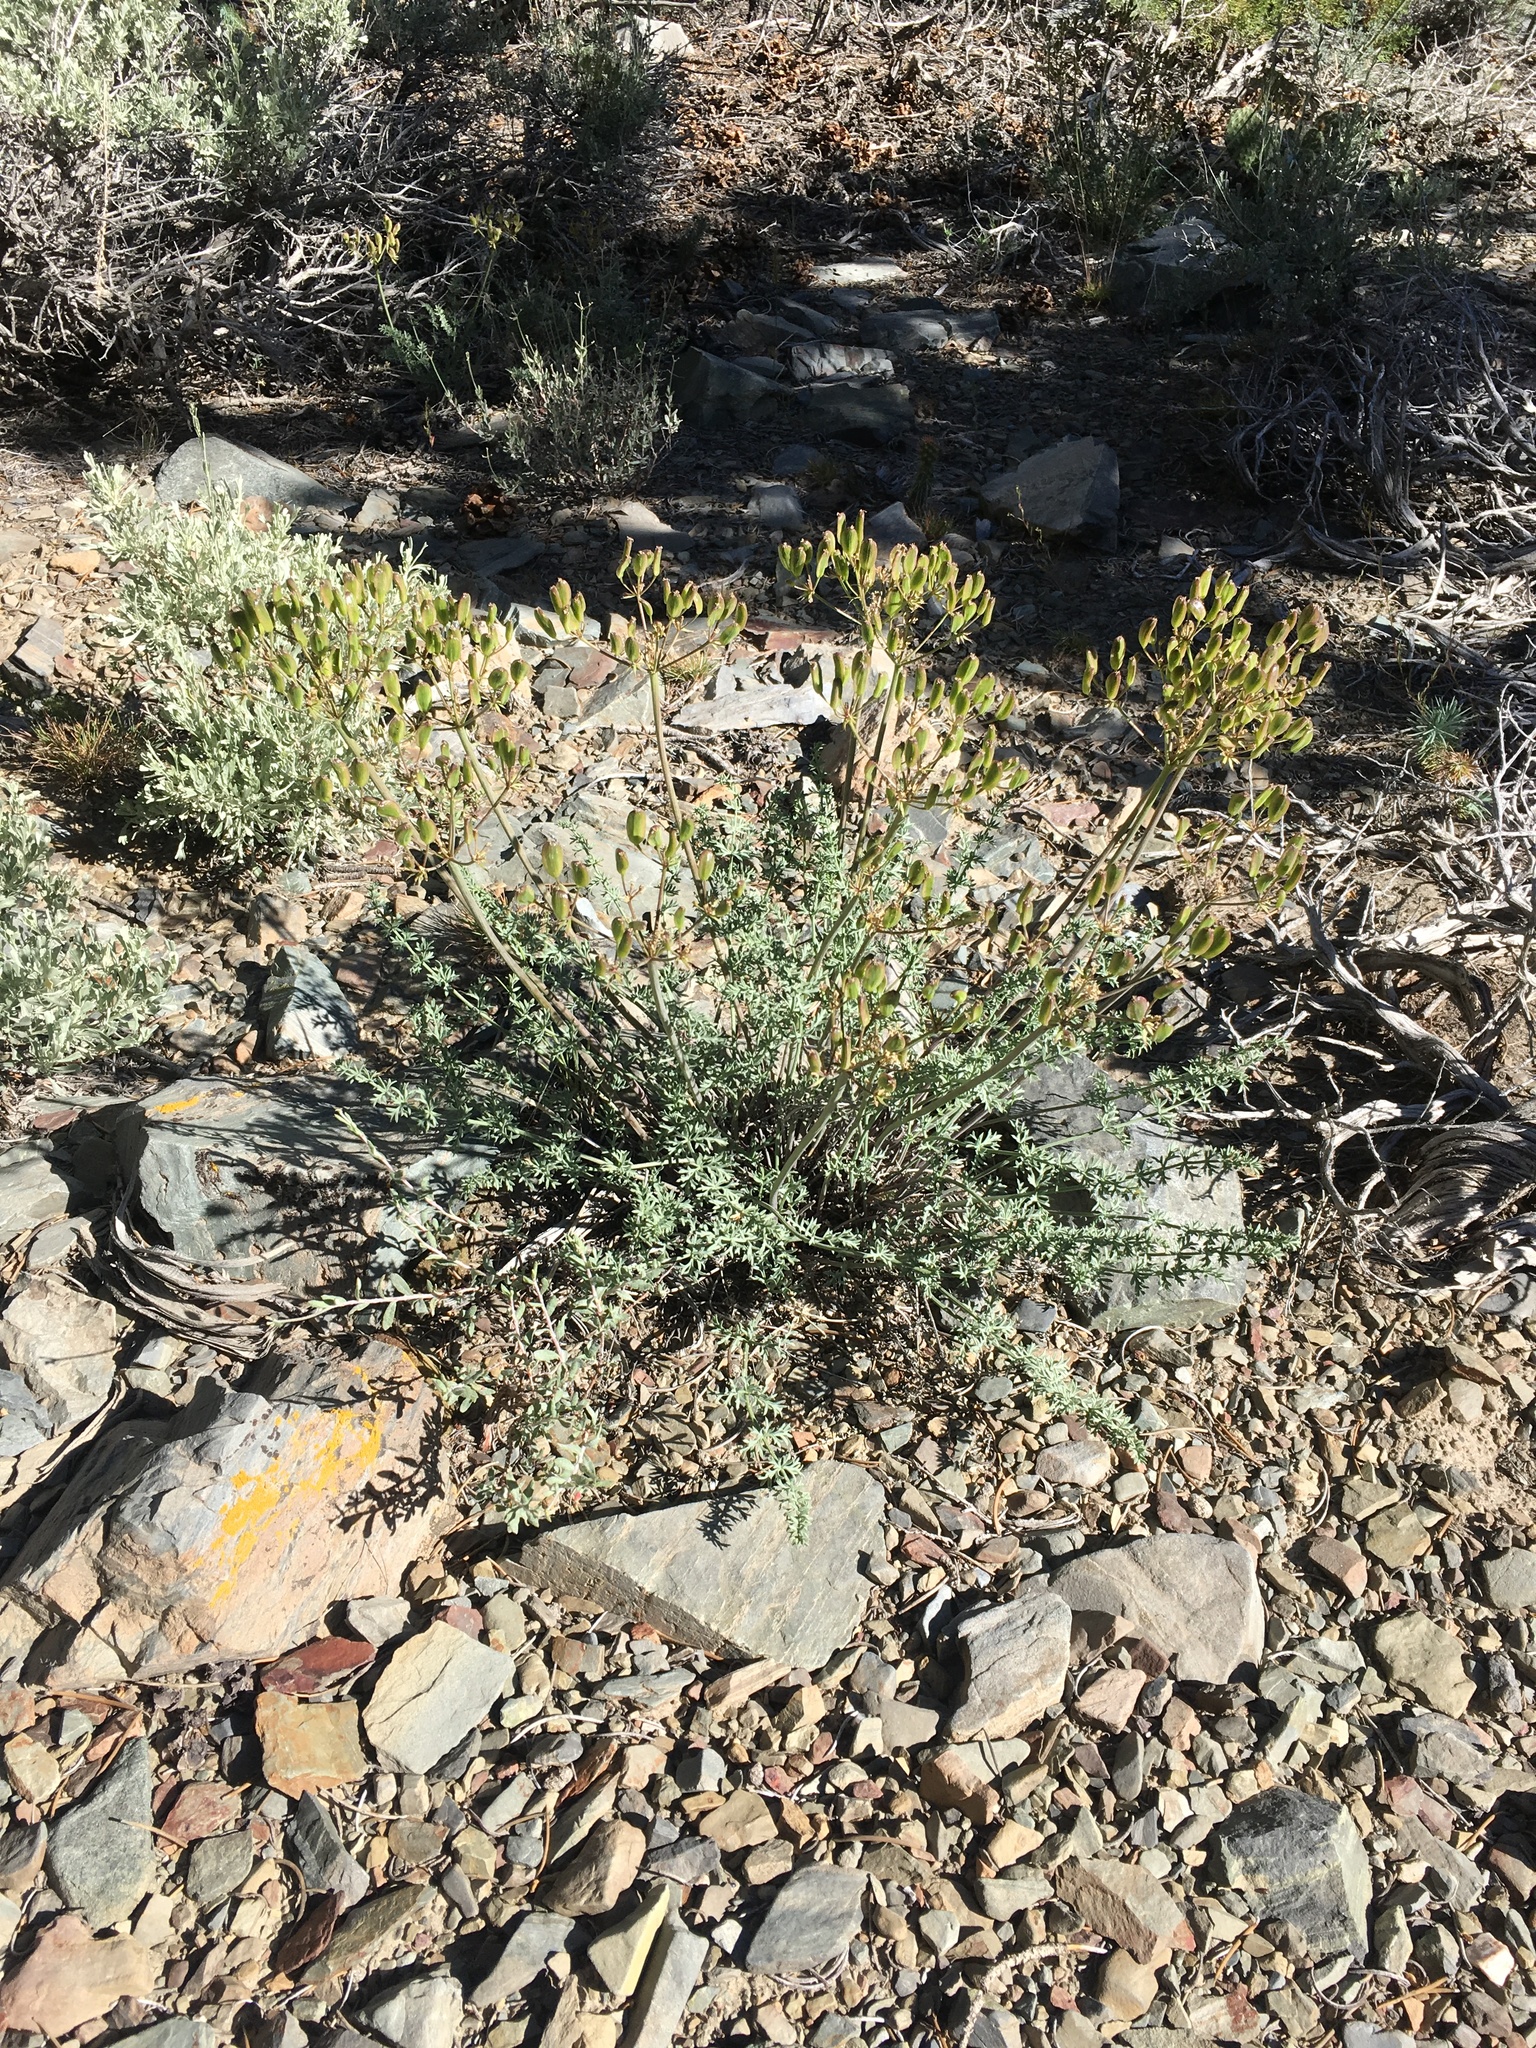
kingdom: Plantae
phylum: Tracheophyta
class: Magnoliopsida
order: Apiales
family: Apiaceae
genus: Lomatium
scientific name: Lomatium parryi
